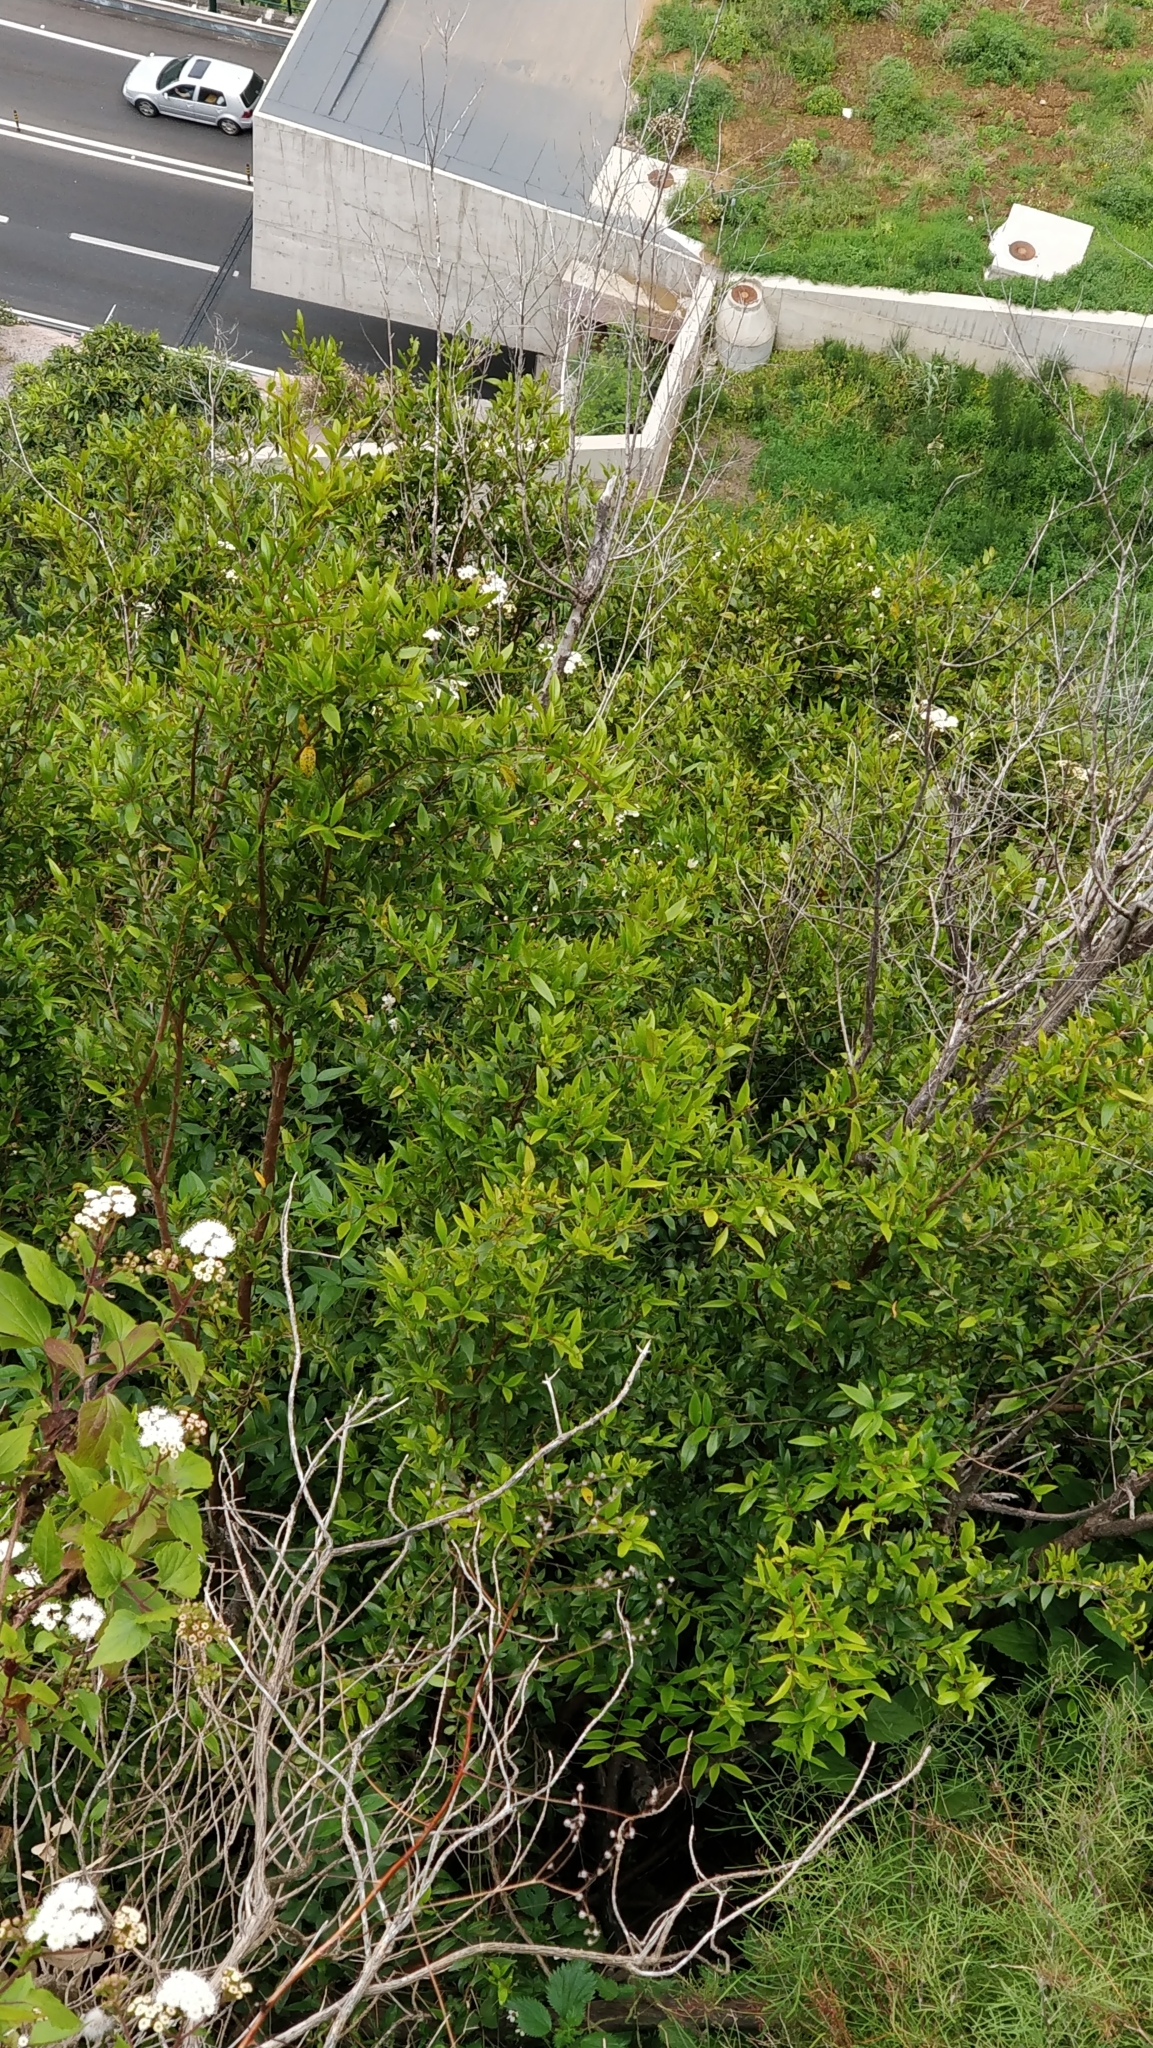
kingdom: Plantae
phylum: Tracheophyta
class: Magnoliopsida
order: Myrtales
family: Myrtaceae
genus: Myrtus
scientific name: Myrtus communis
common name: Myrtle
